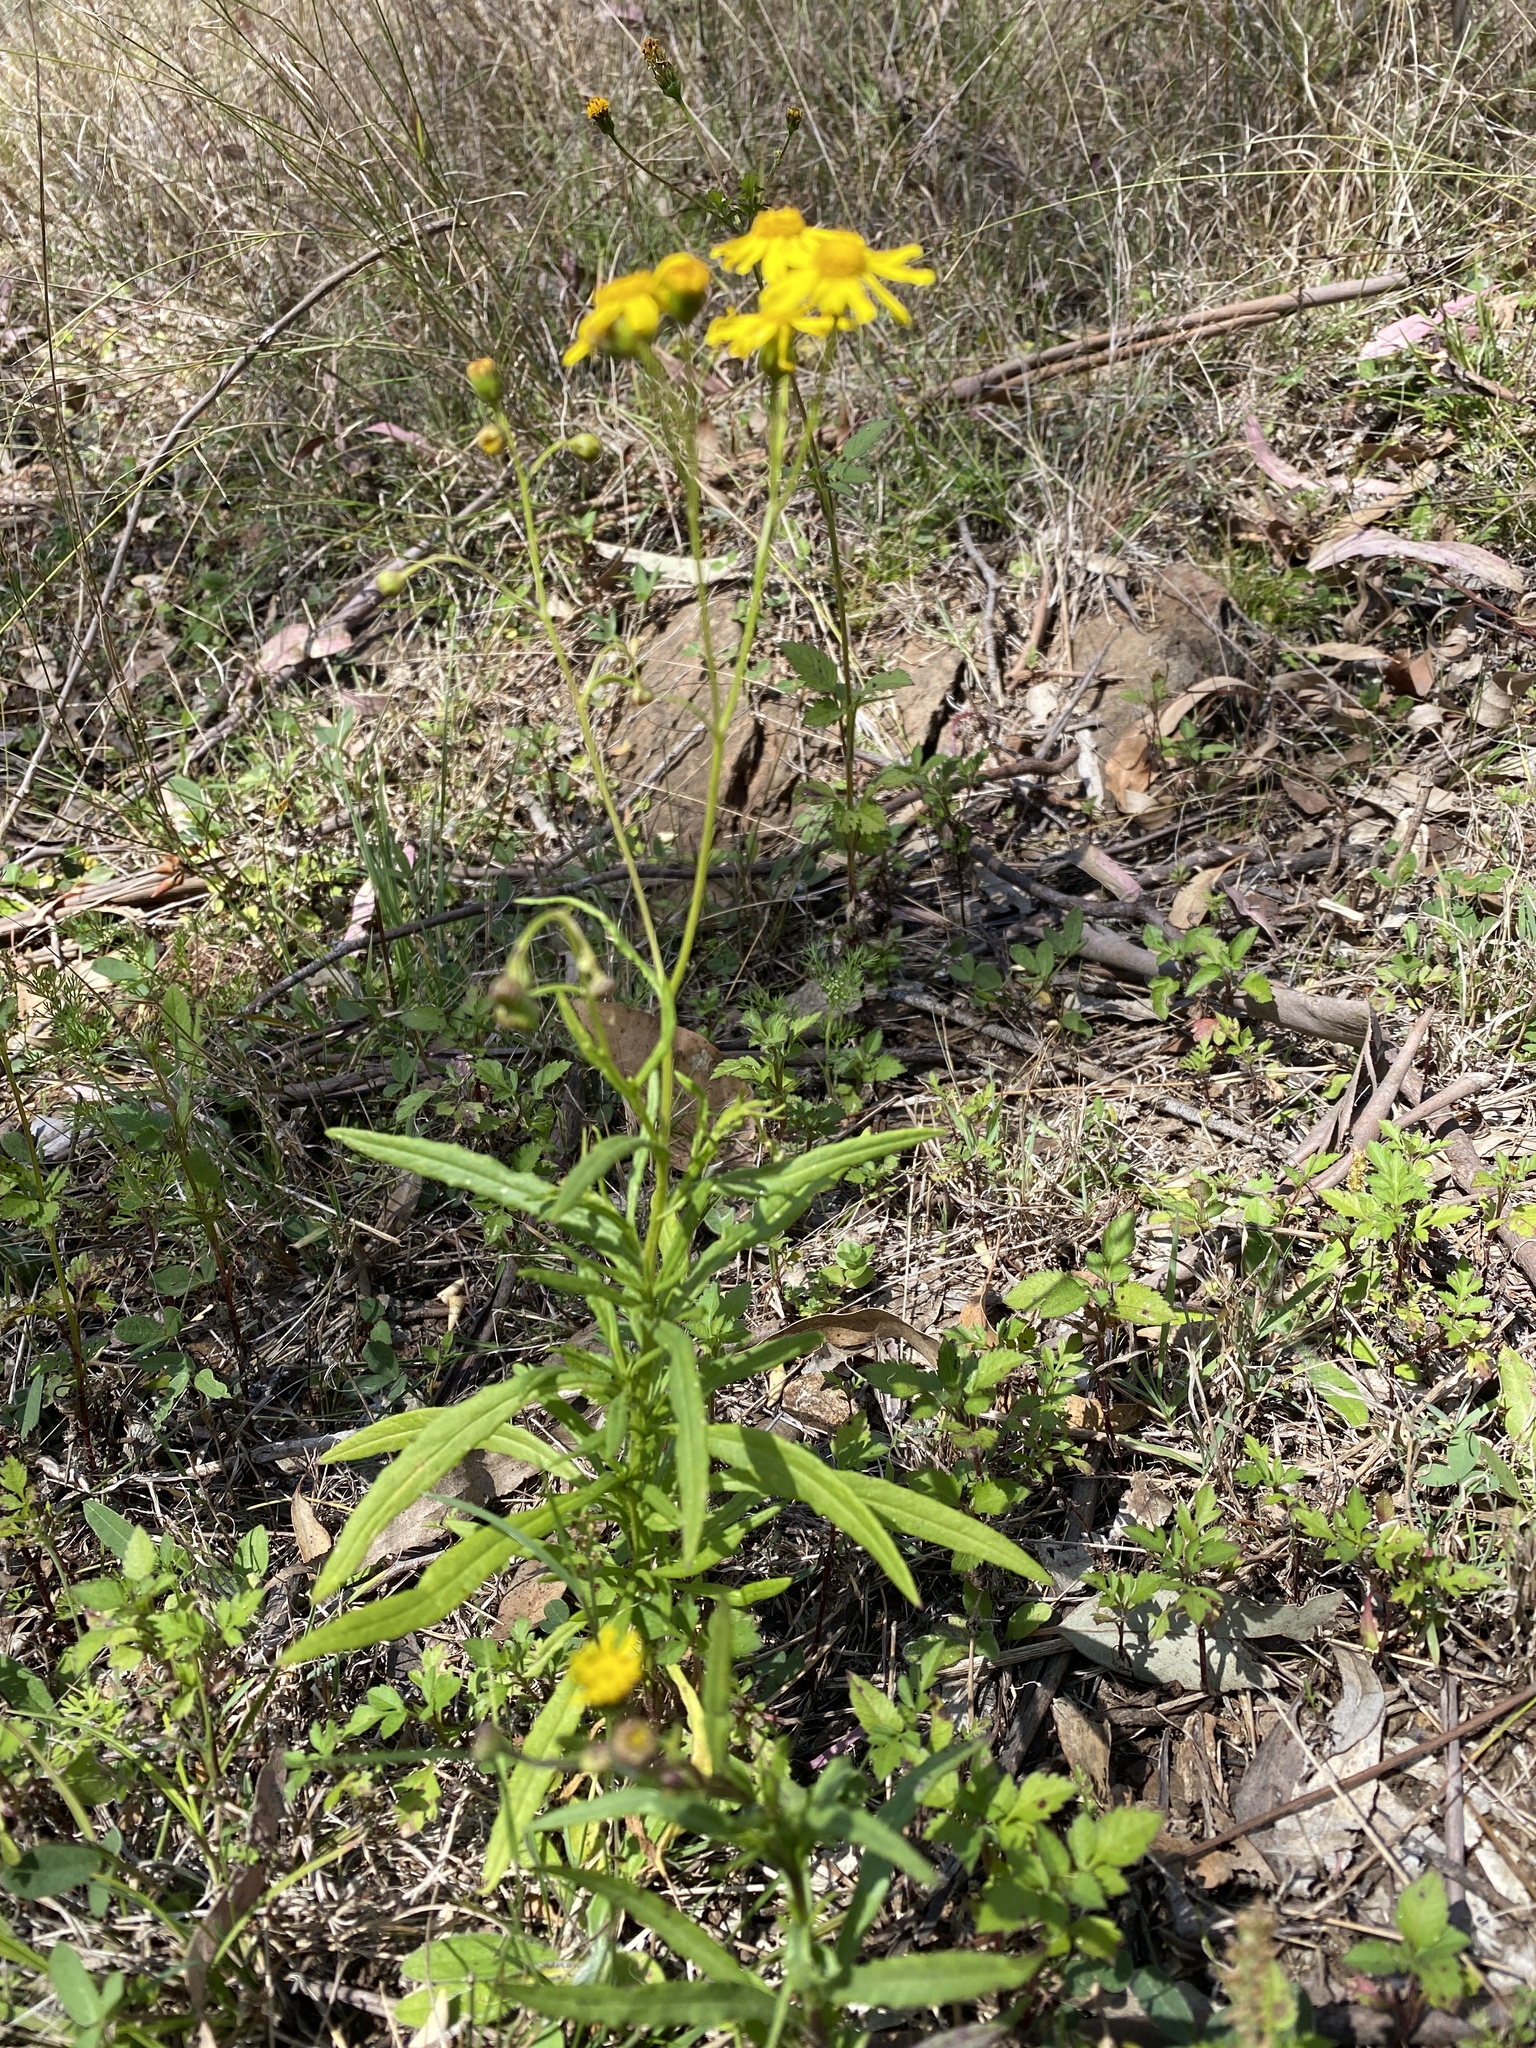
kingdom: Plantae
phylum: Tracheophyta
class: Magnoliopsida
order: Asterales
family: Asteraceae
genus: Senecio
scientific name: Senecio madagascariensis
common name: Madagascar ragwort
